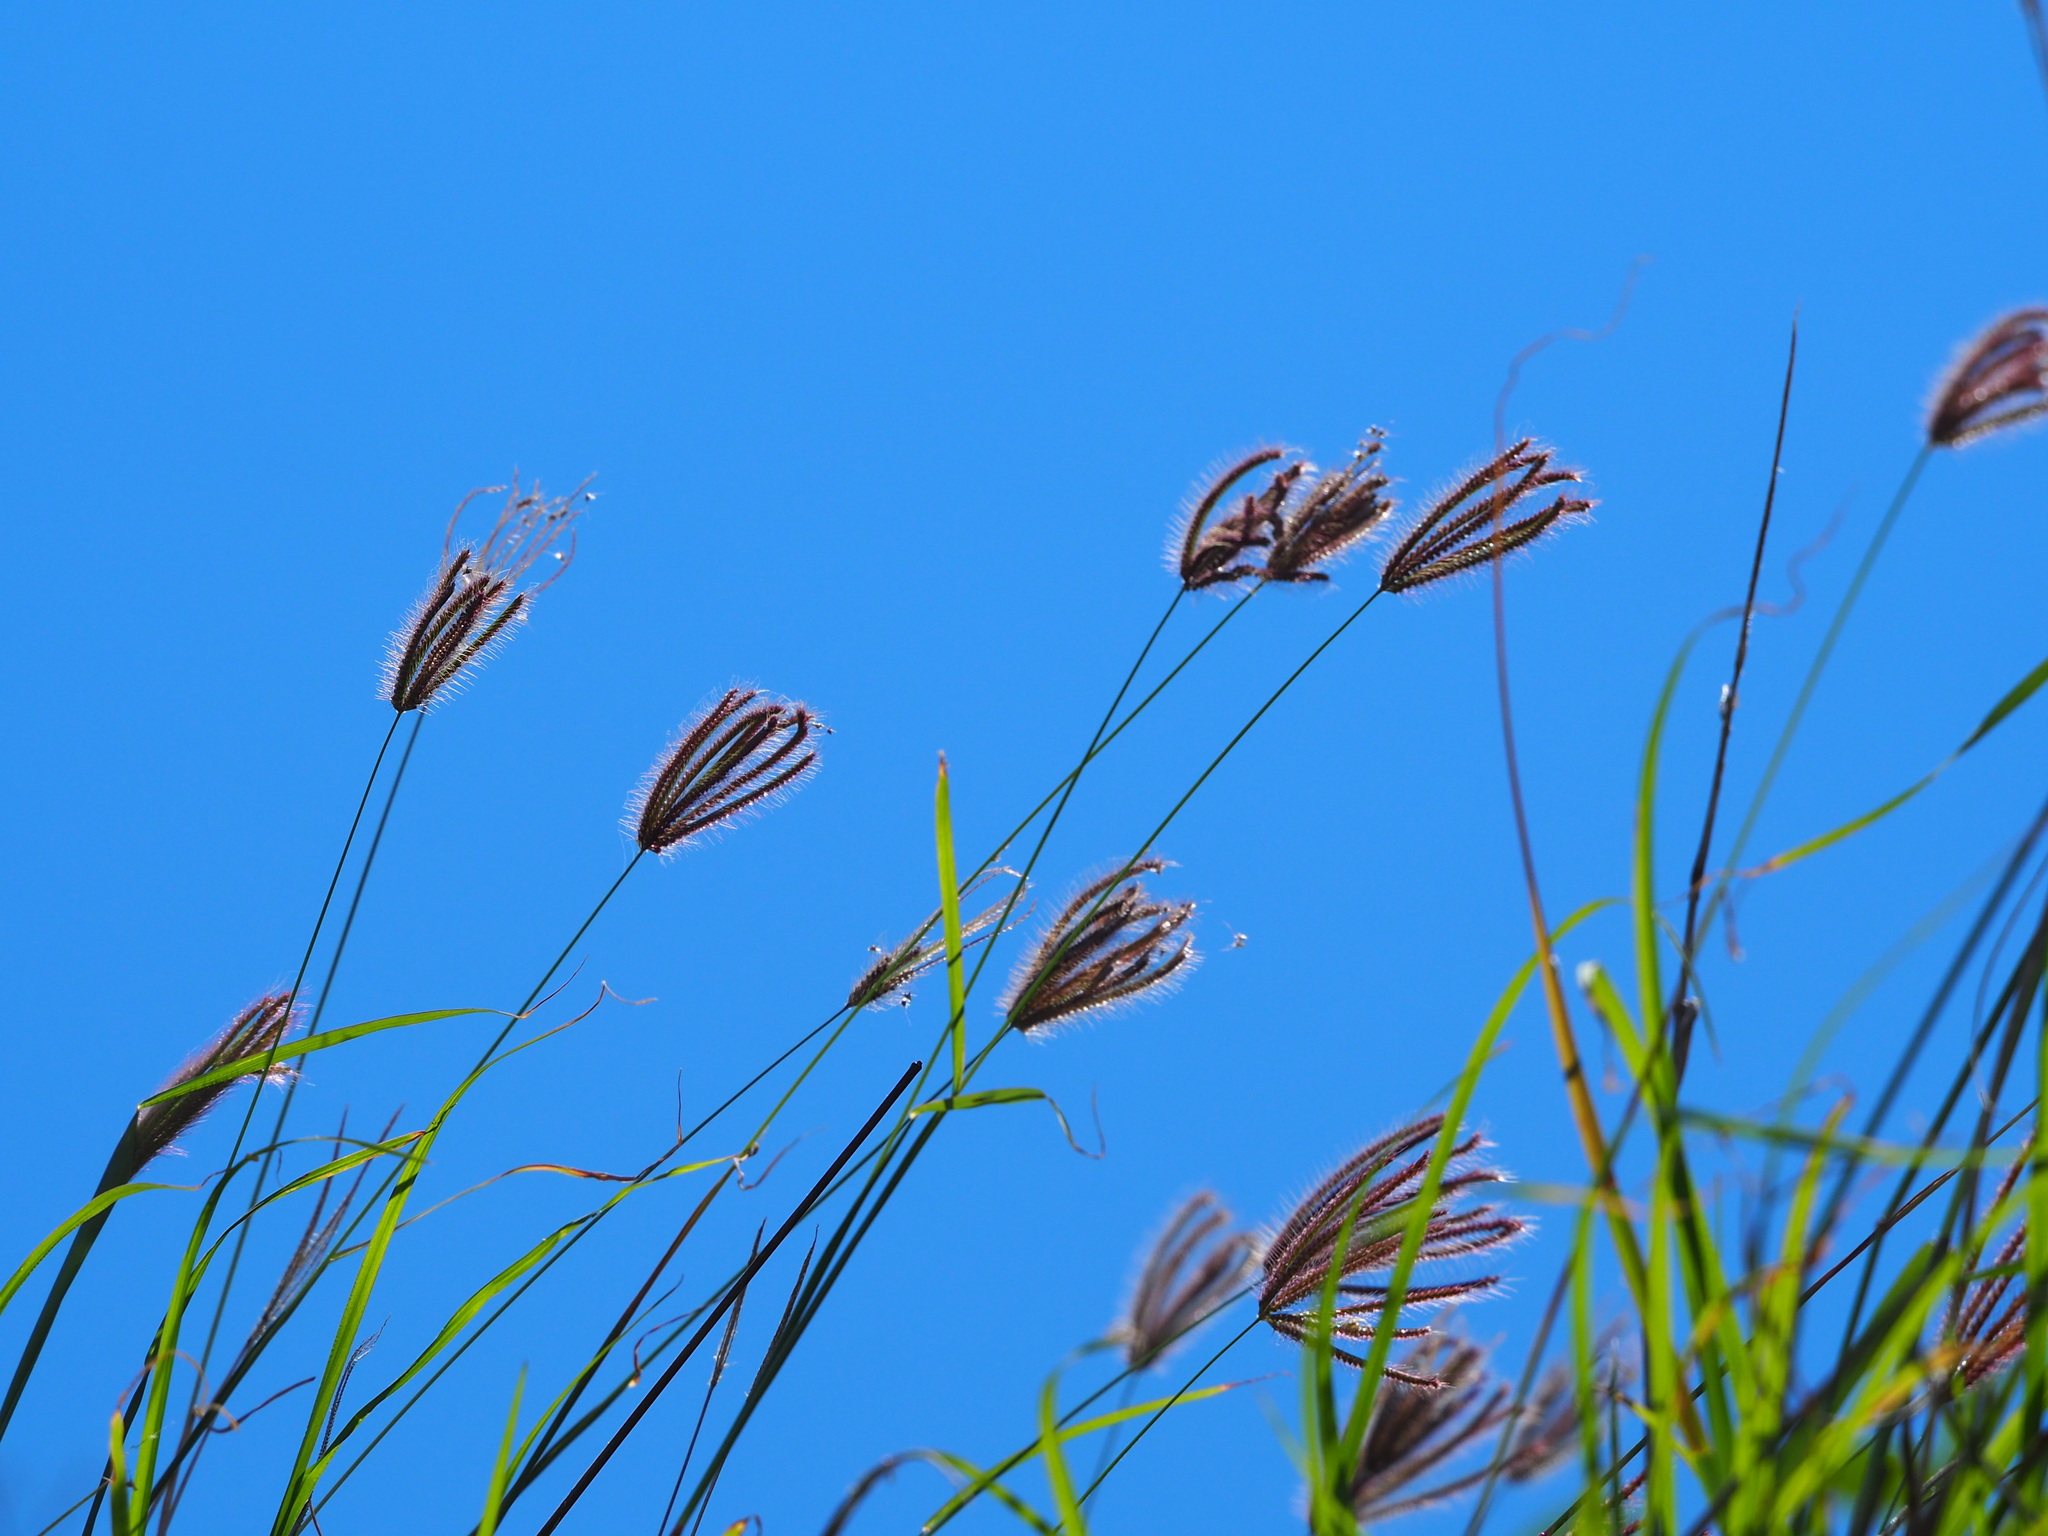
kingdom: Plantae
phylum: Tracheophyta
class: Liliopsida
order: Poales
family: Poaceae
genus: Chloris
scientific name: Chloris barbata
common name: Swollen fingergrass
